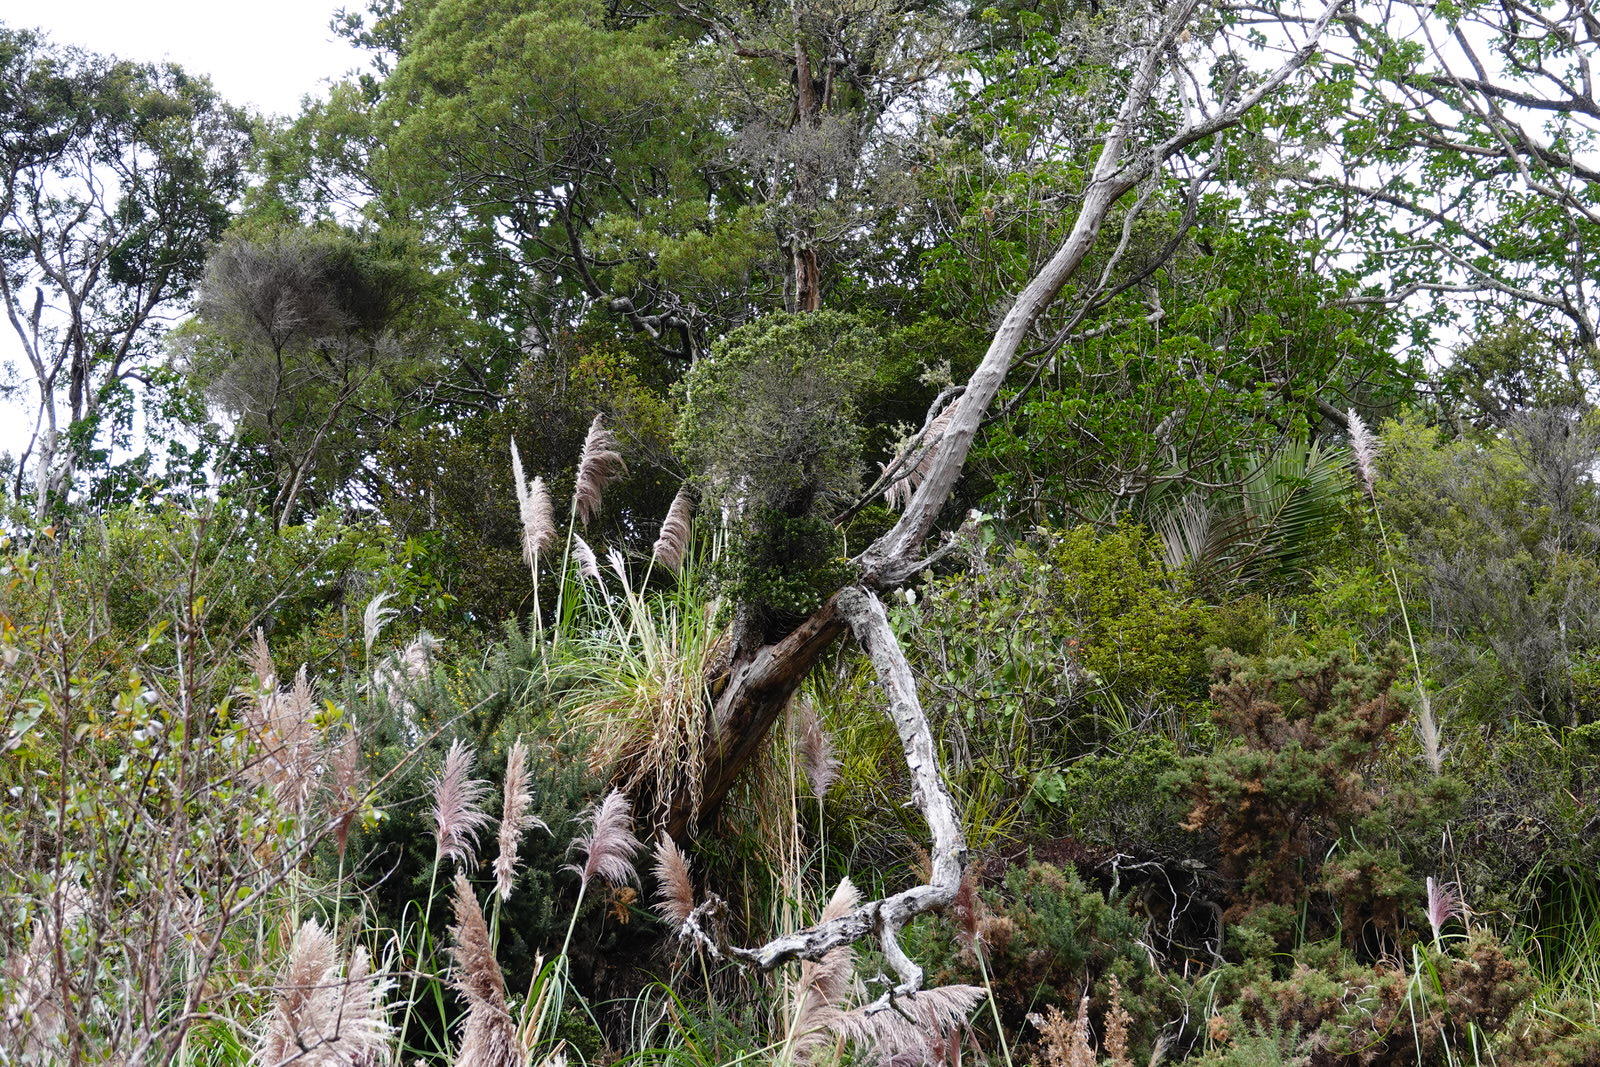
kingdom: Plantae
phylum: Tracheophyta
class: Magnoliopsida
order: Myrtales
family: Myrtaceae
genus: Metrosideros
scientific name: Metrosideros perforata
